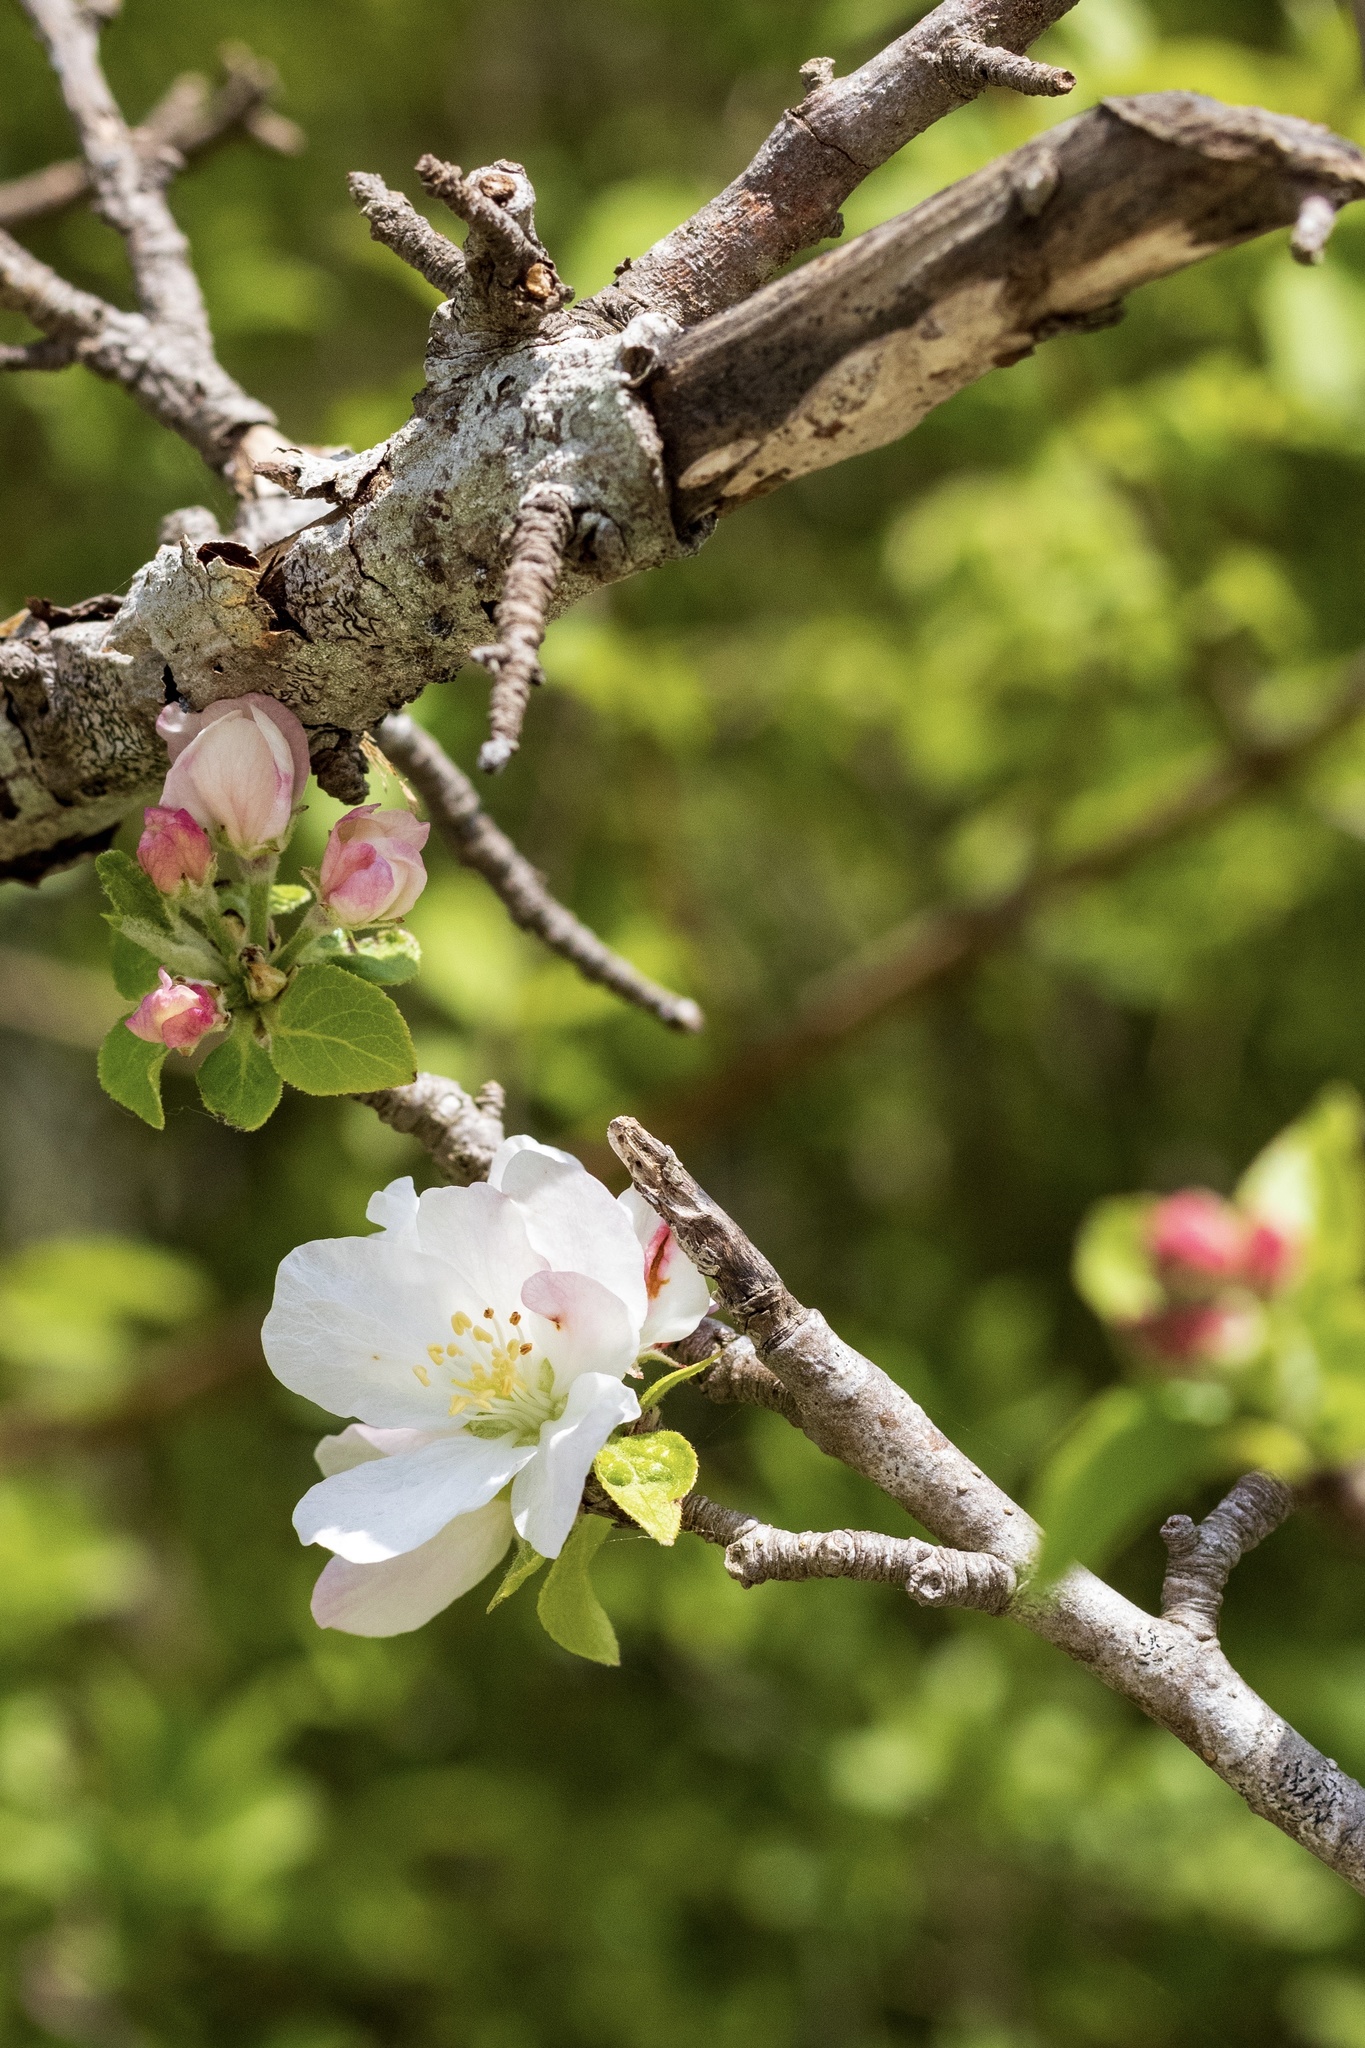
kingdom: Plantae
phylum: Tracheophyta
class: Magnoliopsida
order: Rosales
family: Rosaceae
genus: Malus
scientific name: Malus domestica
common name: Apple
